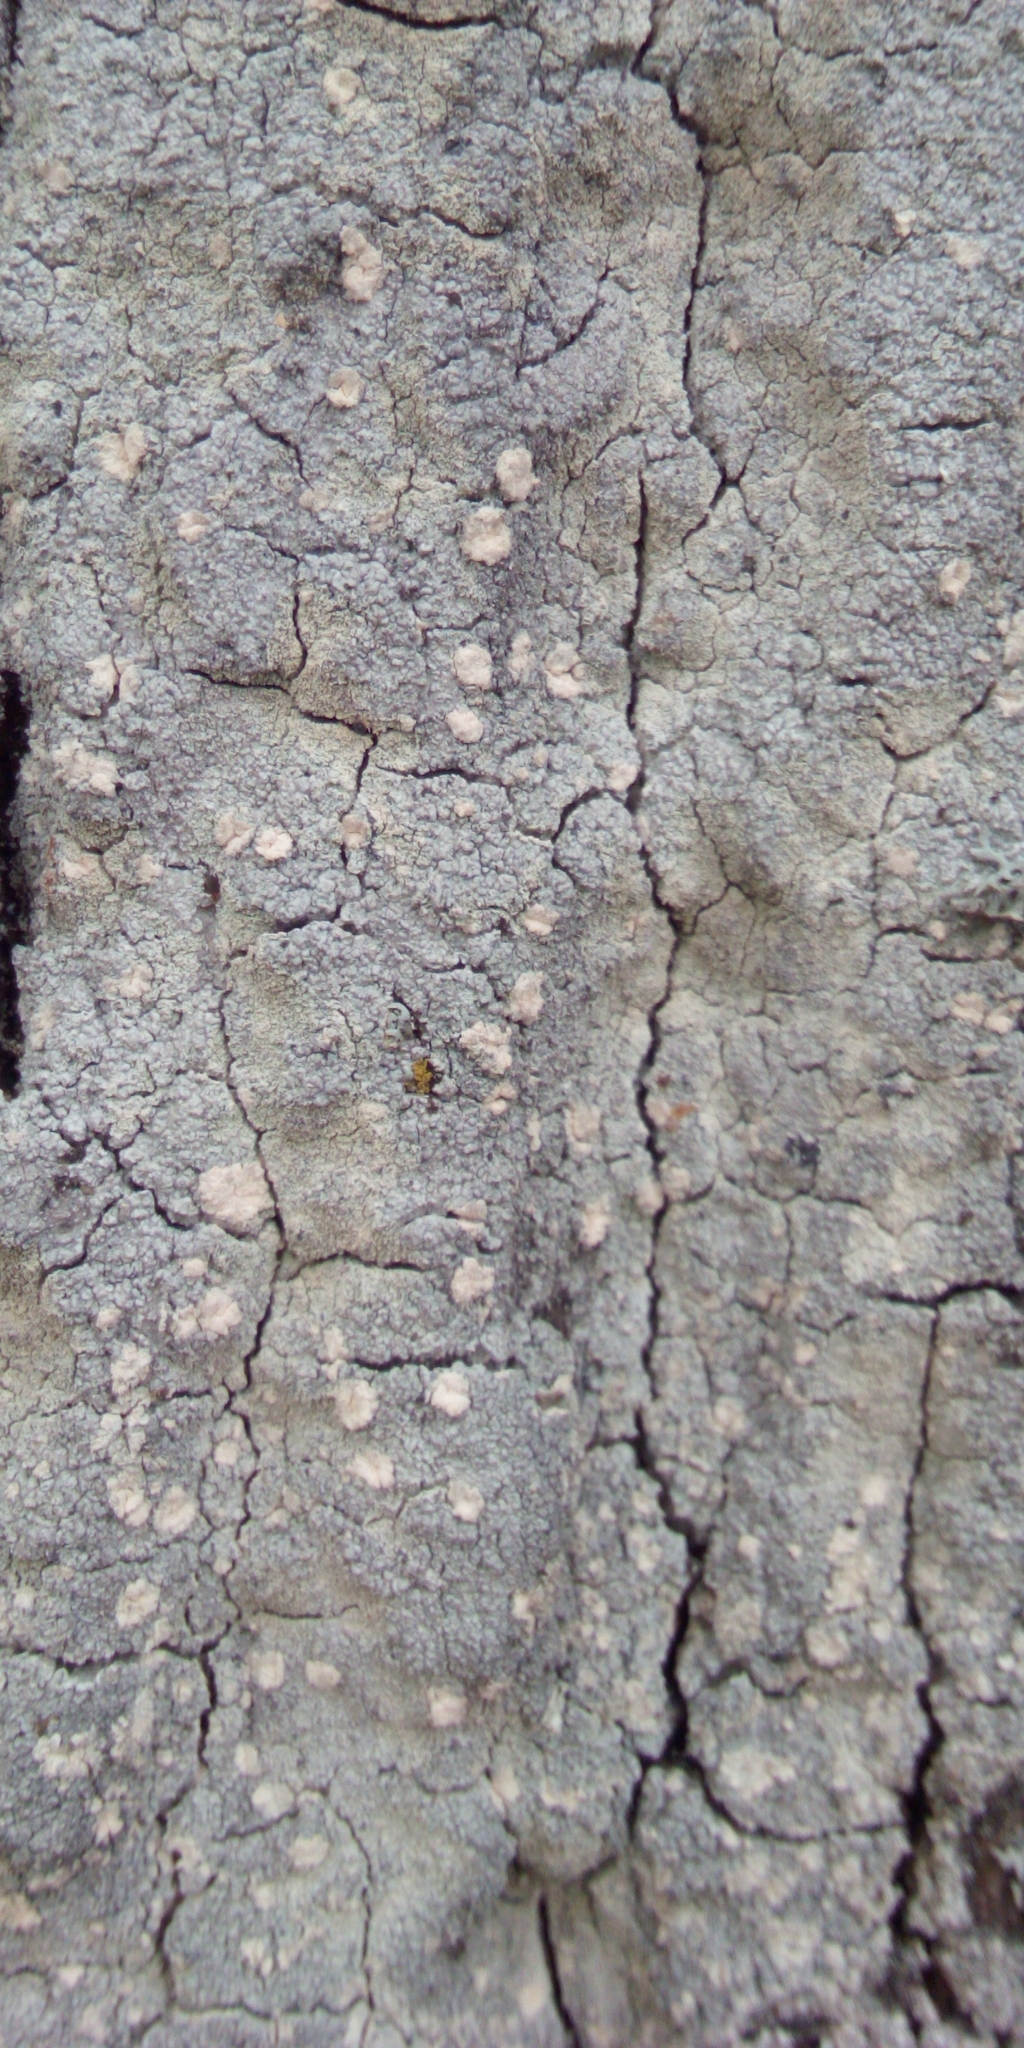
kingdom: Fungi
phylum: Ascomycota
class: Lecanoromycetes
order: Ostropales
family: Phlyctidaceae
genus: Phlyctis
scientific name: Phlyctis argena
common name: Whitewash lichen
